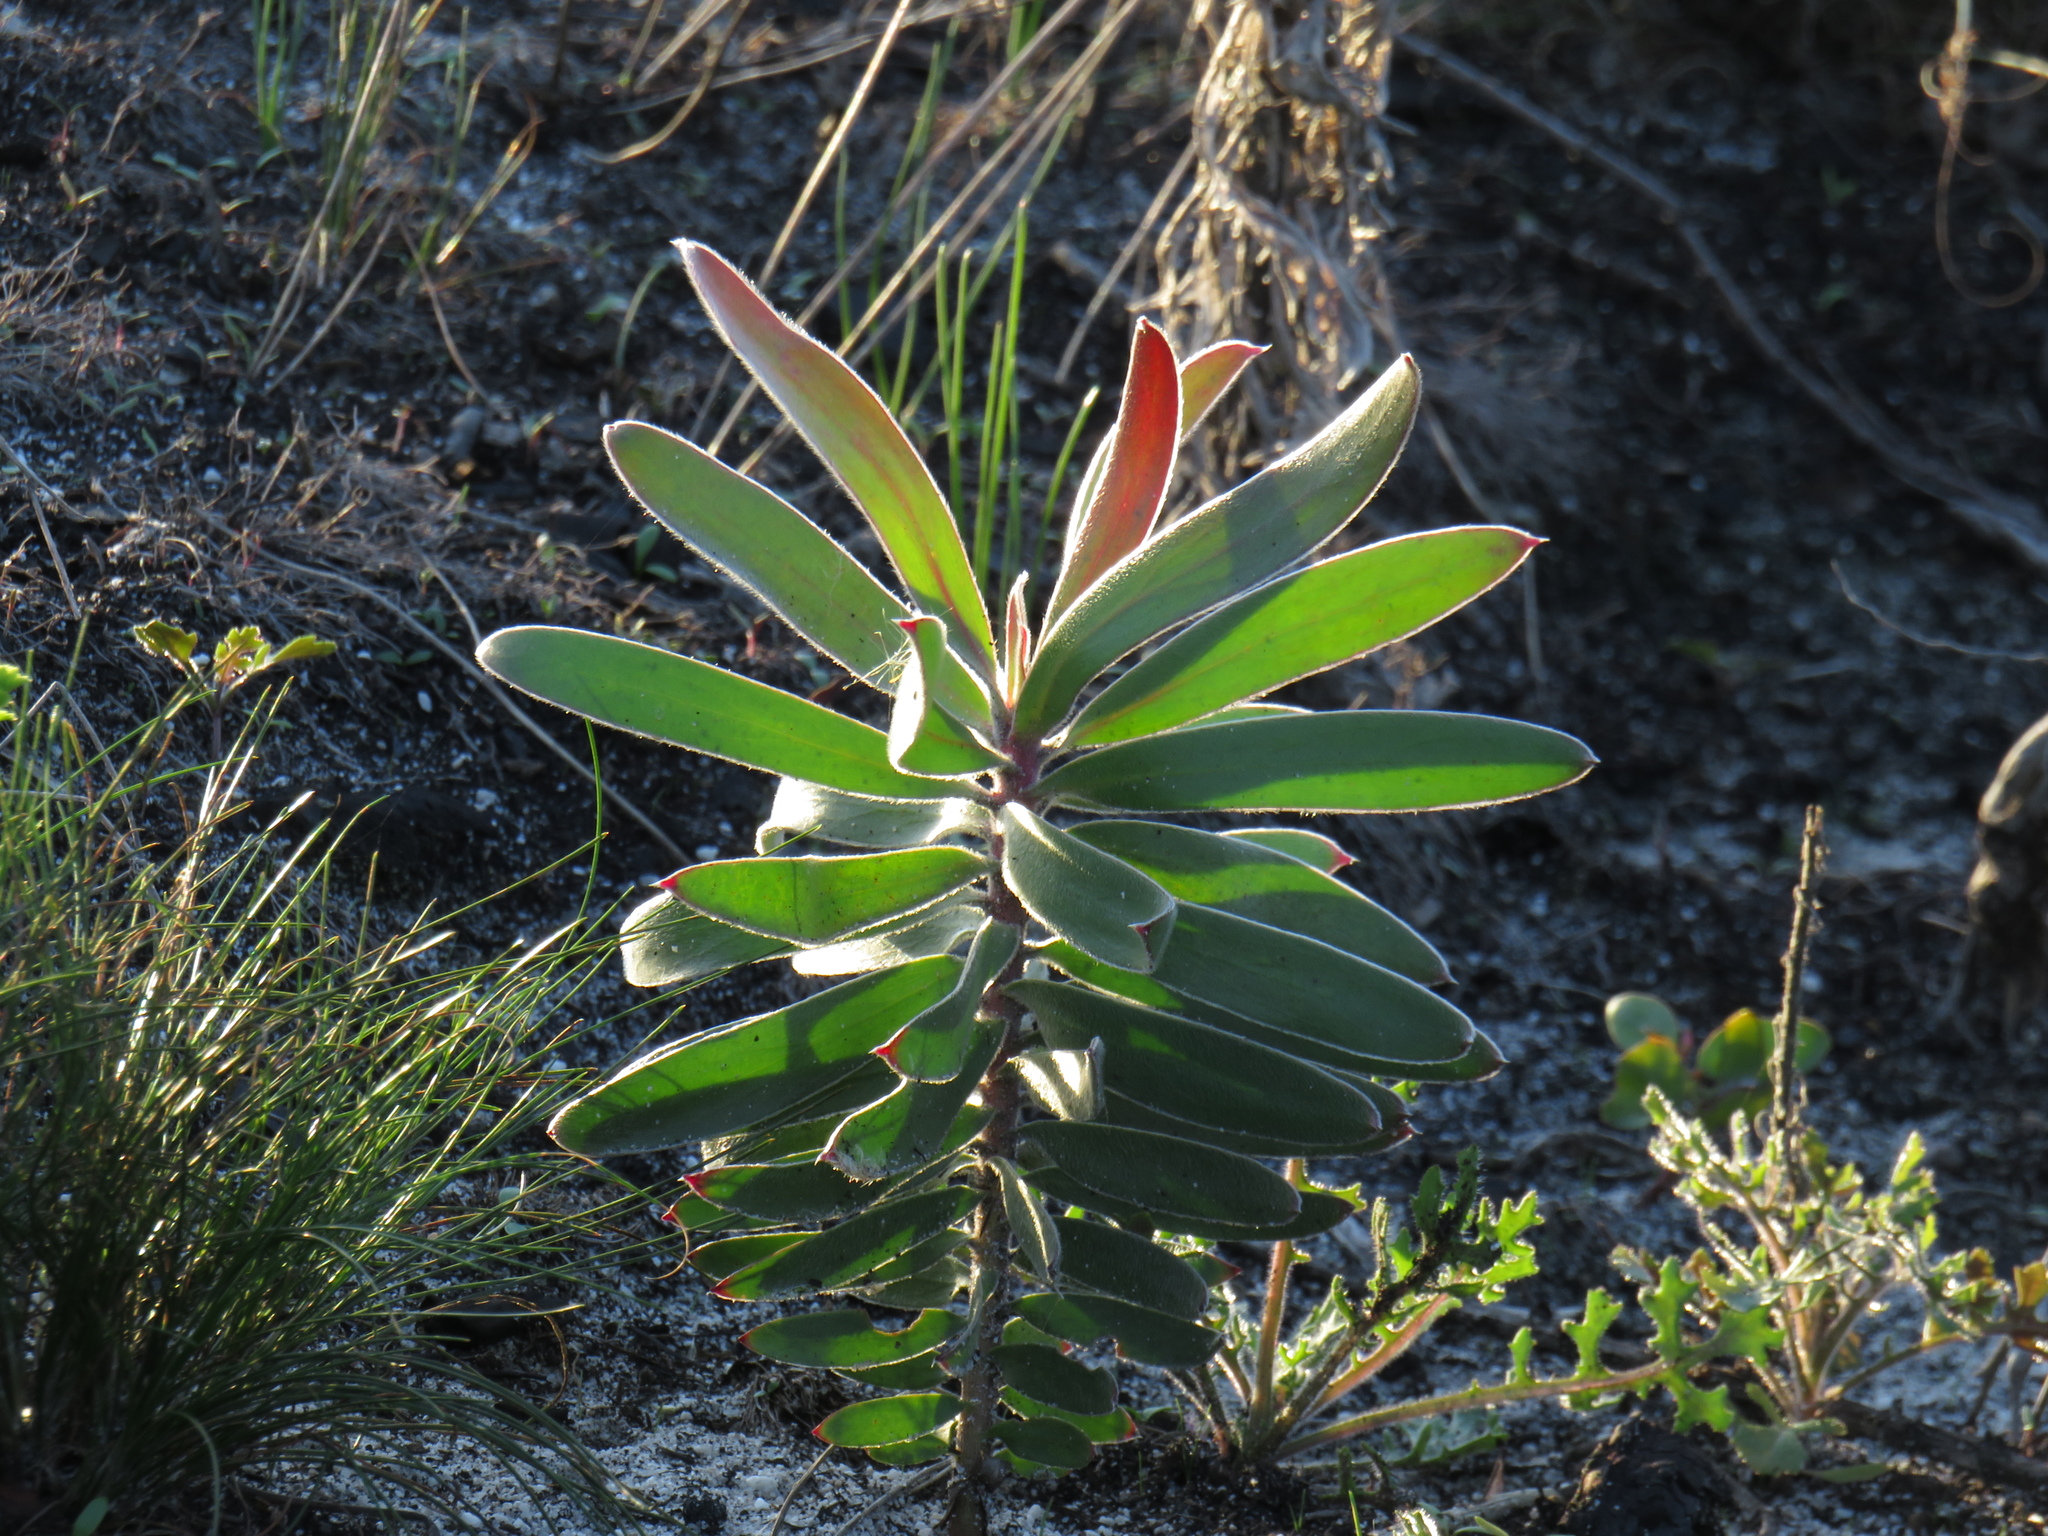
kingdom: Plantae
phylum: Tracheophyta
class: Magnoliopsida
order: Proteales
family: Proteaceae
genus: Leucadendron
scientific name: Leucadendron laureolum
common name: Golden sunshinebush
